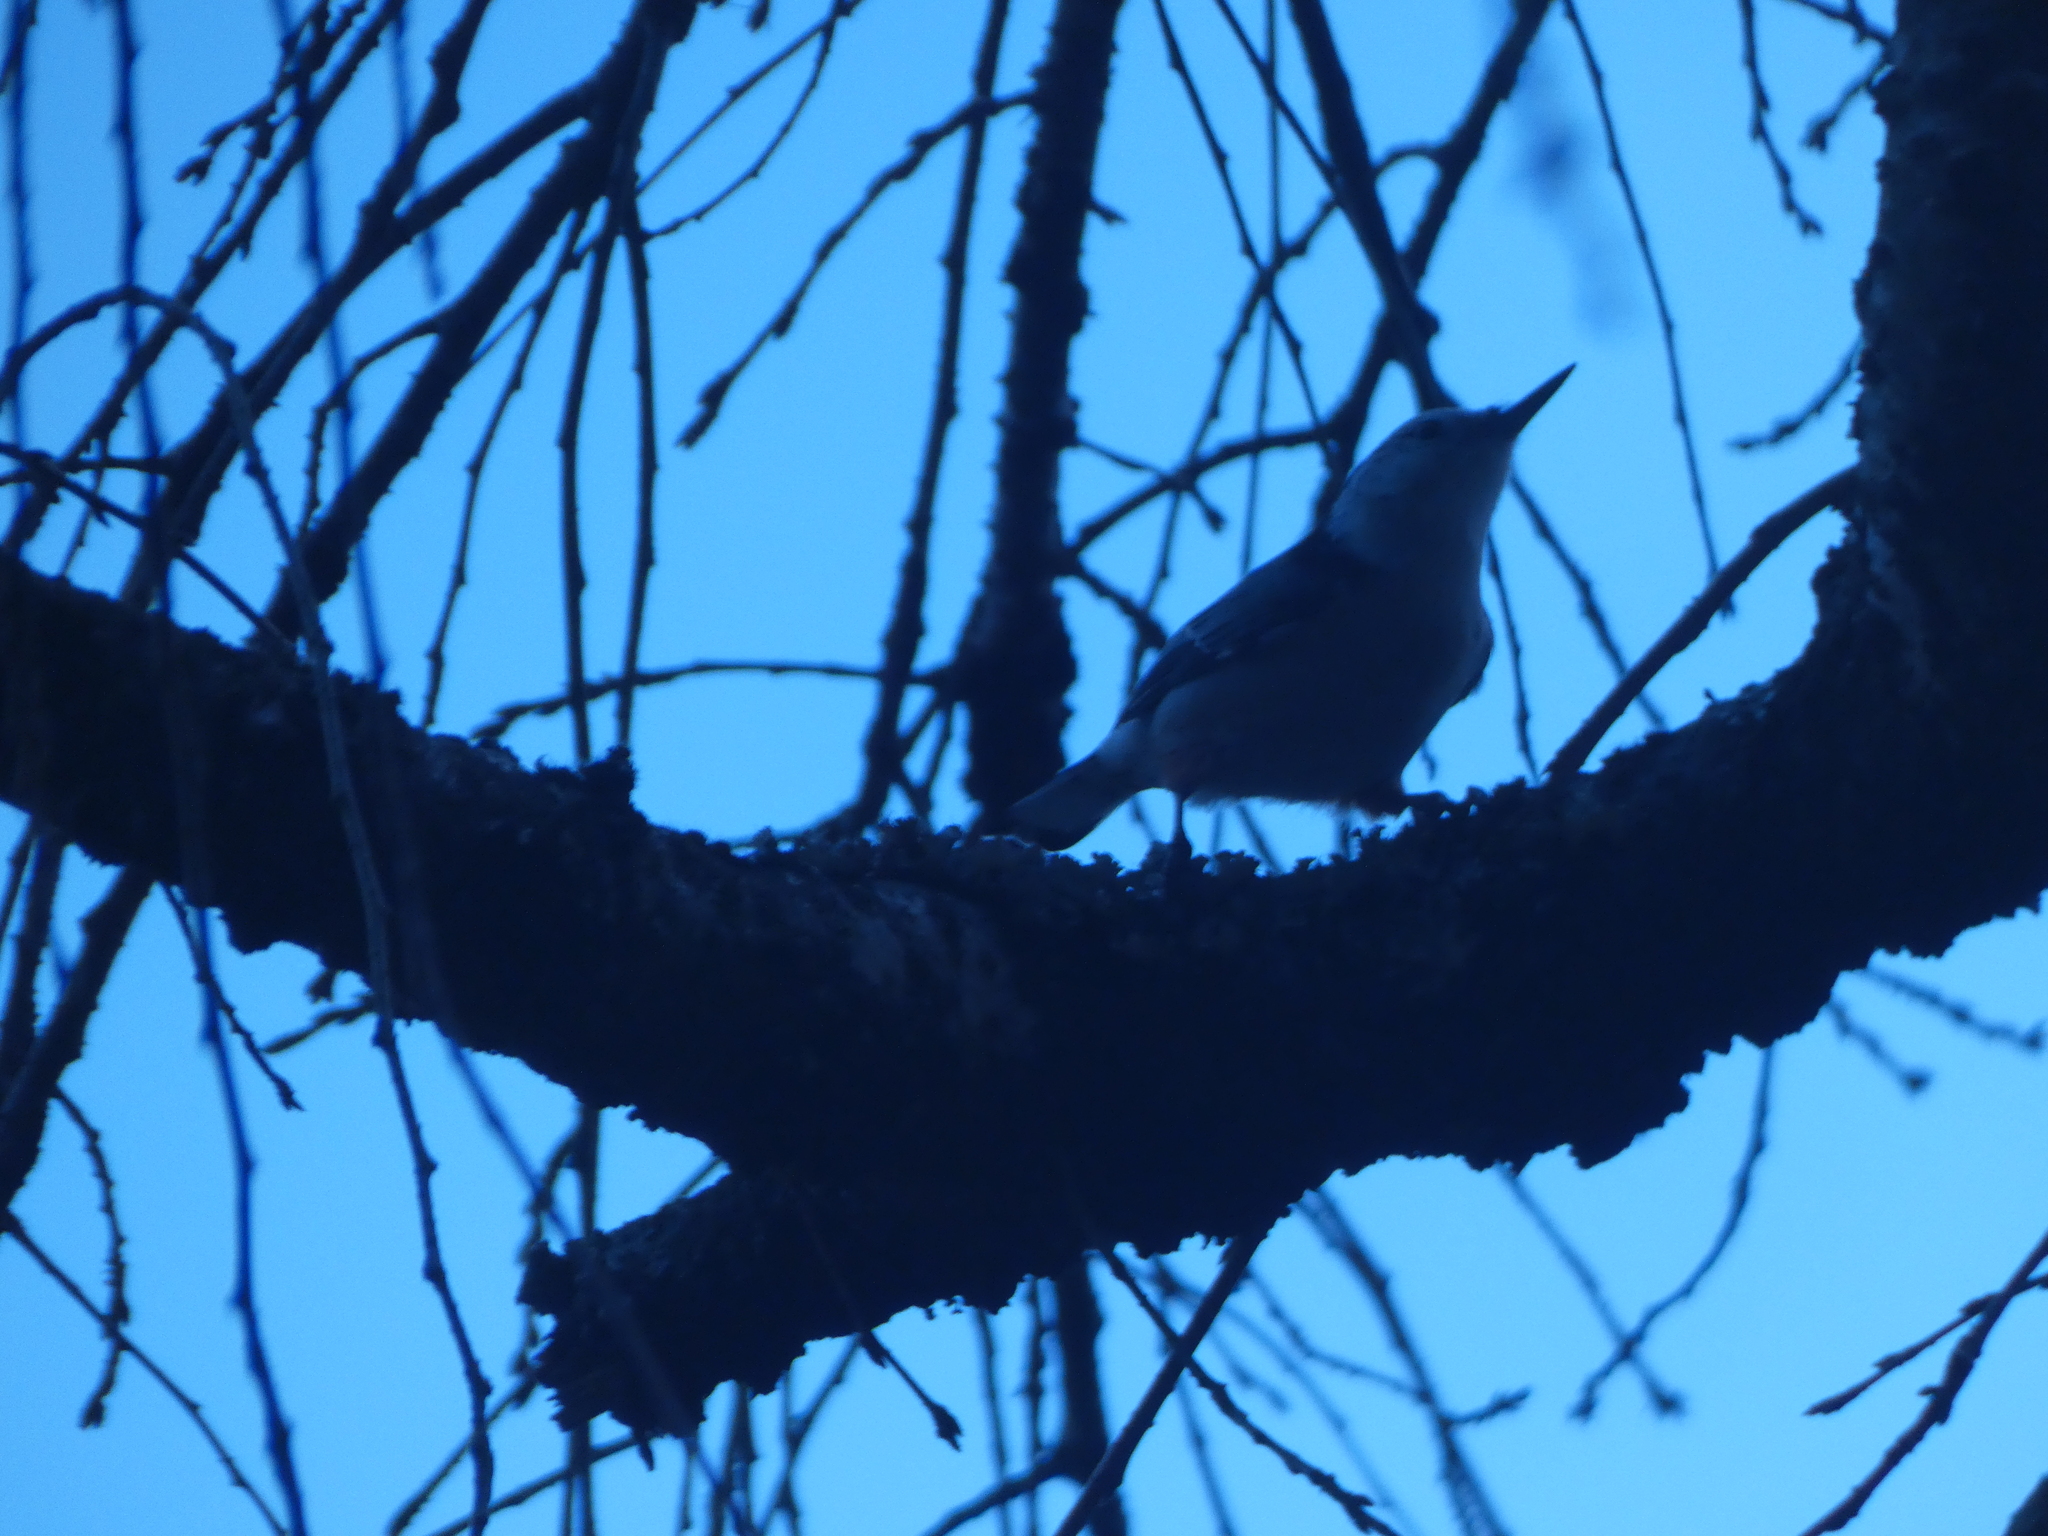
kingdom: Animalia
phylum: Chordata
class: Aves
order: Passeriformes
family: Sittidae
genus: Sitta
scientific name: Sitta carolinensis
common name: White-breasted nuthatch
